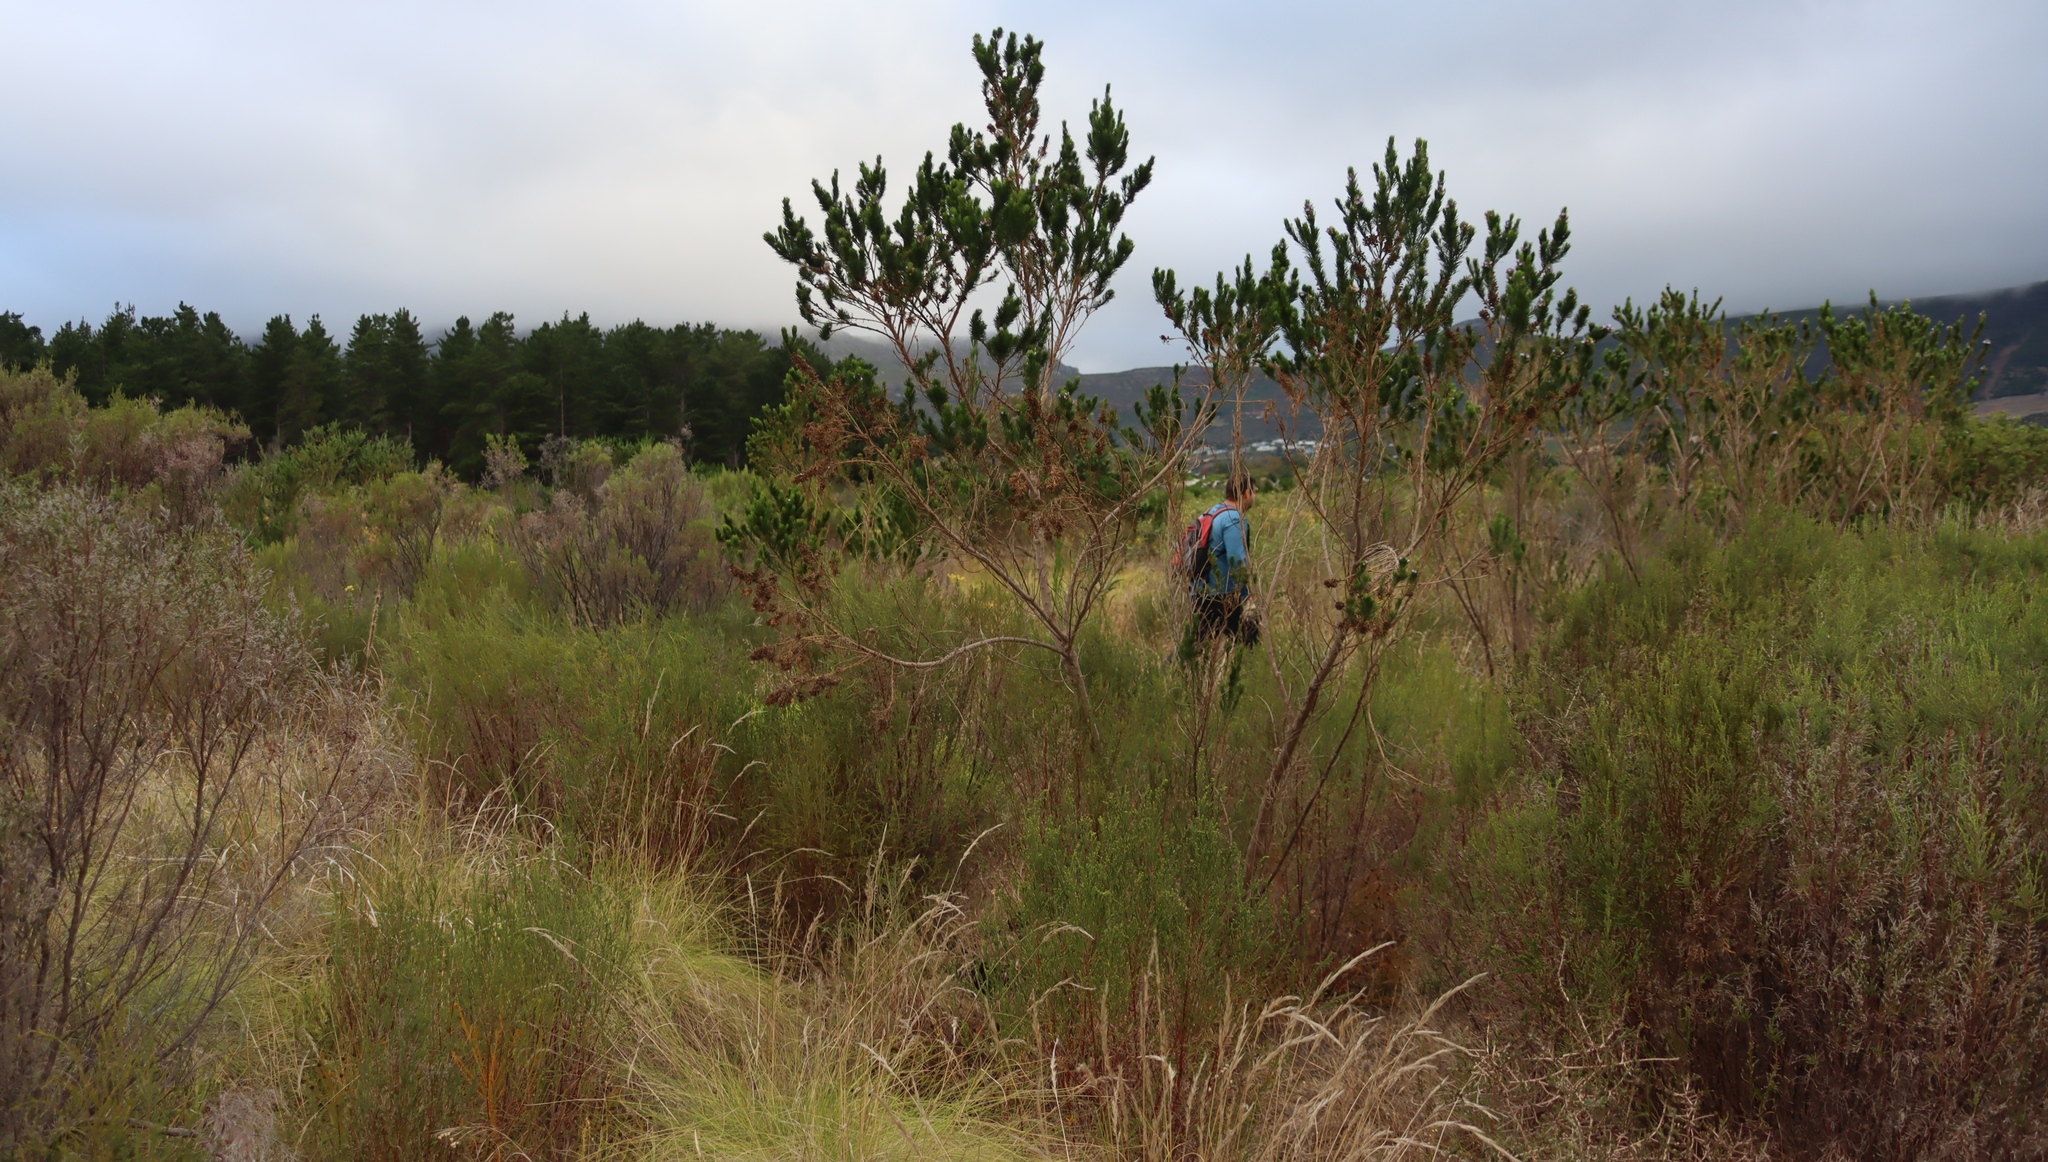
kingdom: Plantae
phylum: Tracheophyta
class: Magnoliopsida
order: Fabales
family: Fabaceae
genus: Psoralea
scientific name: Psoralea pinnata
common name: African scurfpea
